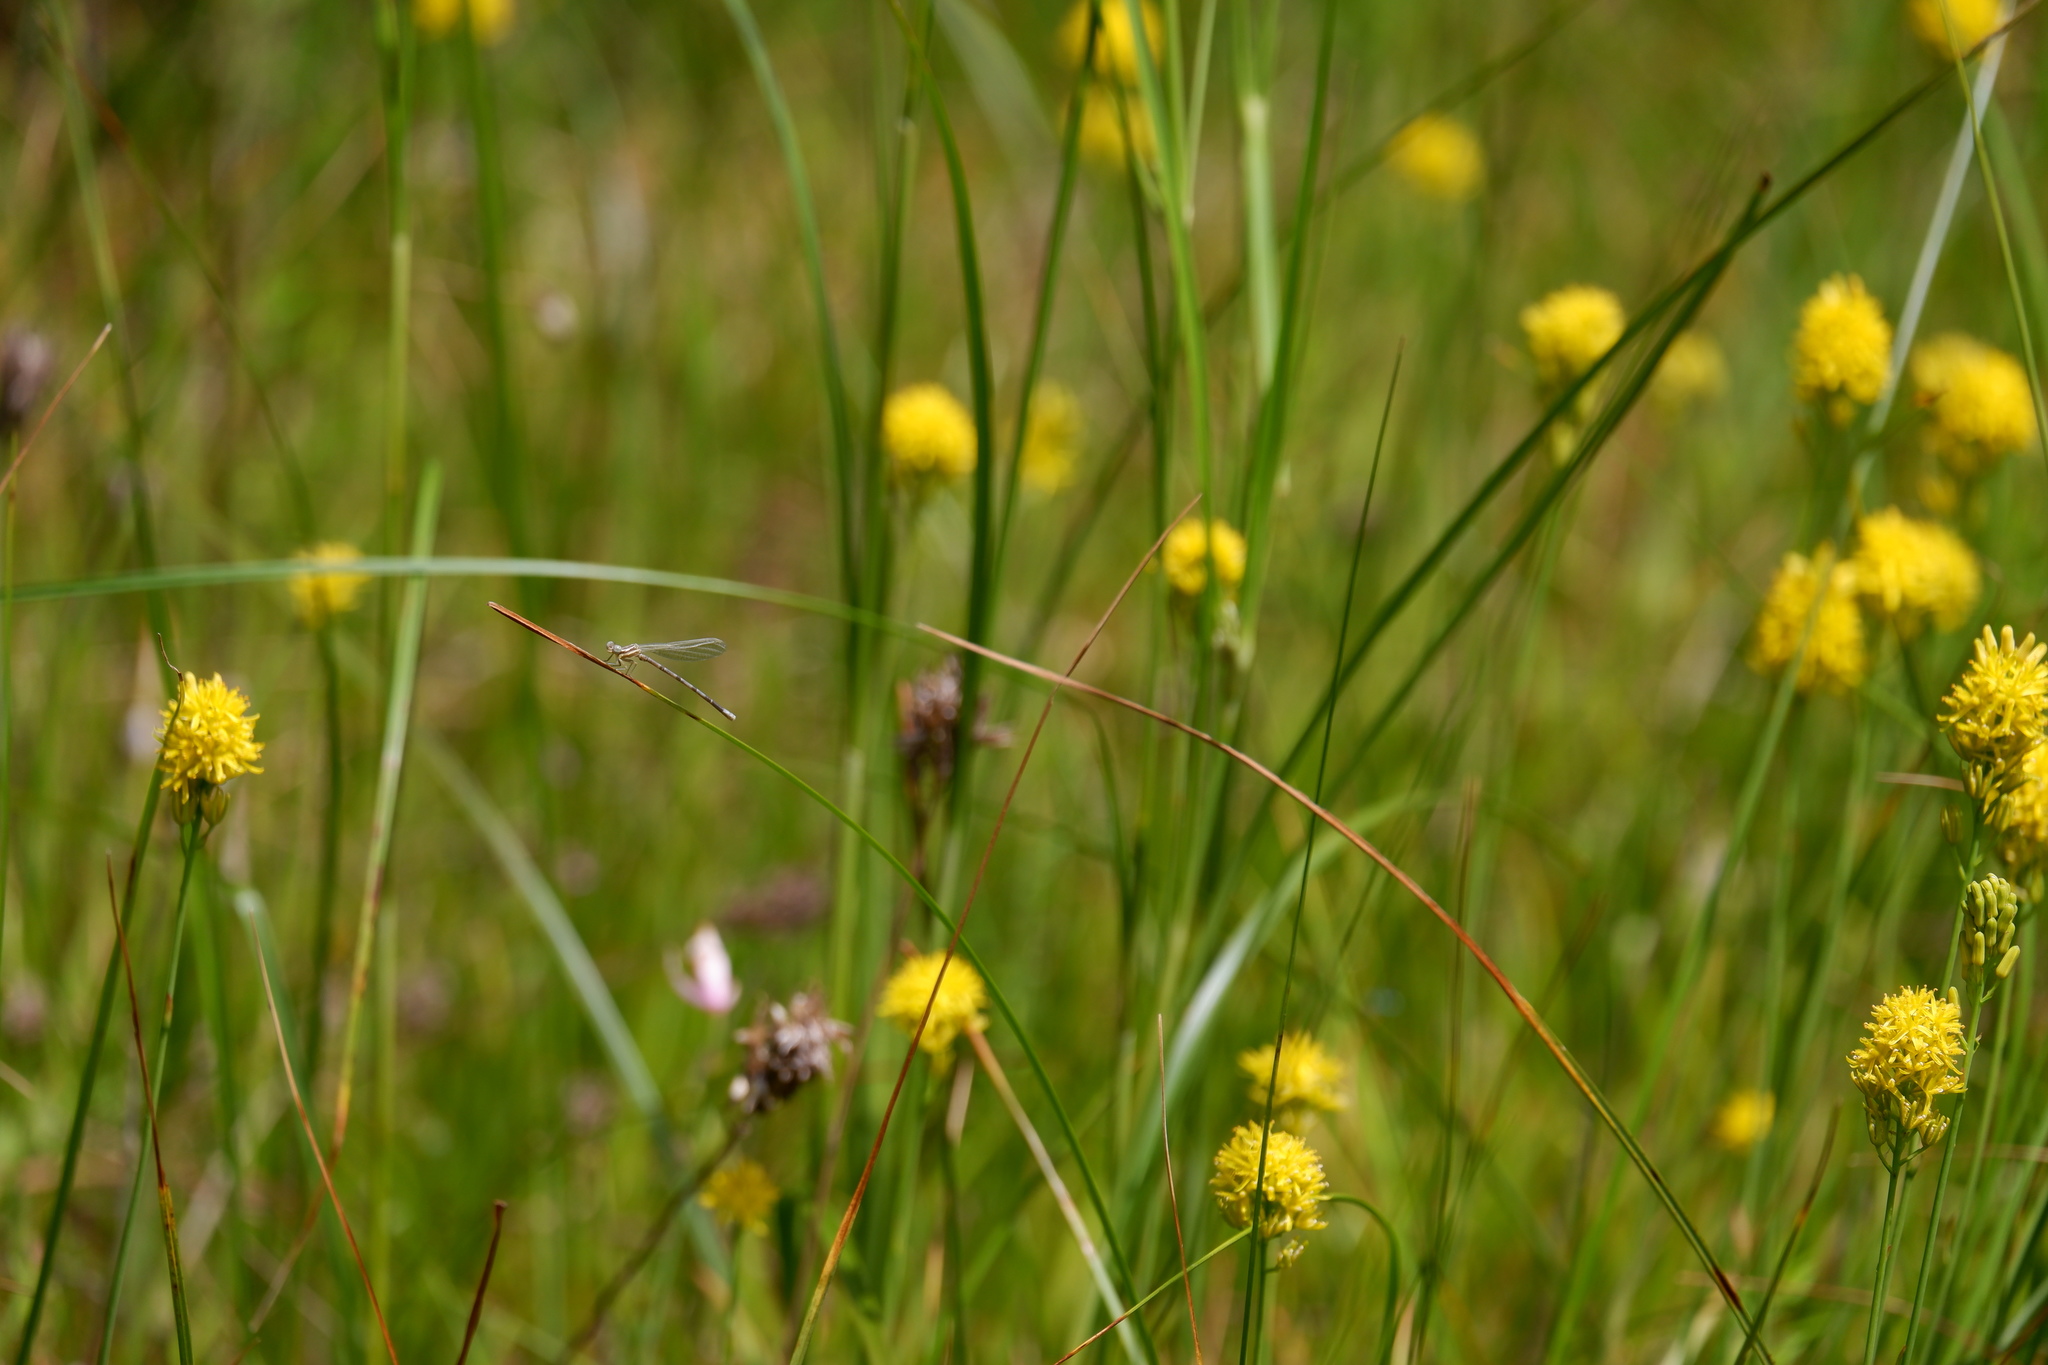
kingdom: Animalia
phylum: Arthropoda
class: Insecta
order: Odonata
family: Coenagrionidae
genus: Argia
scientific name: Argia bipunctulata
